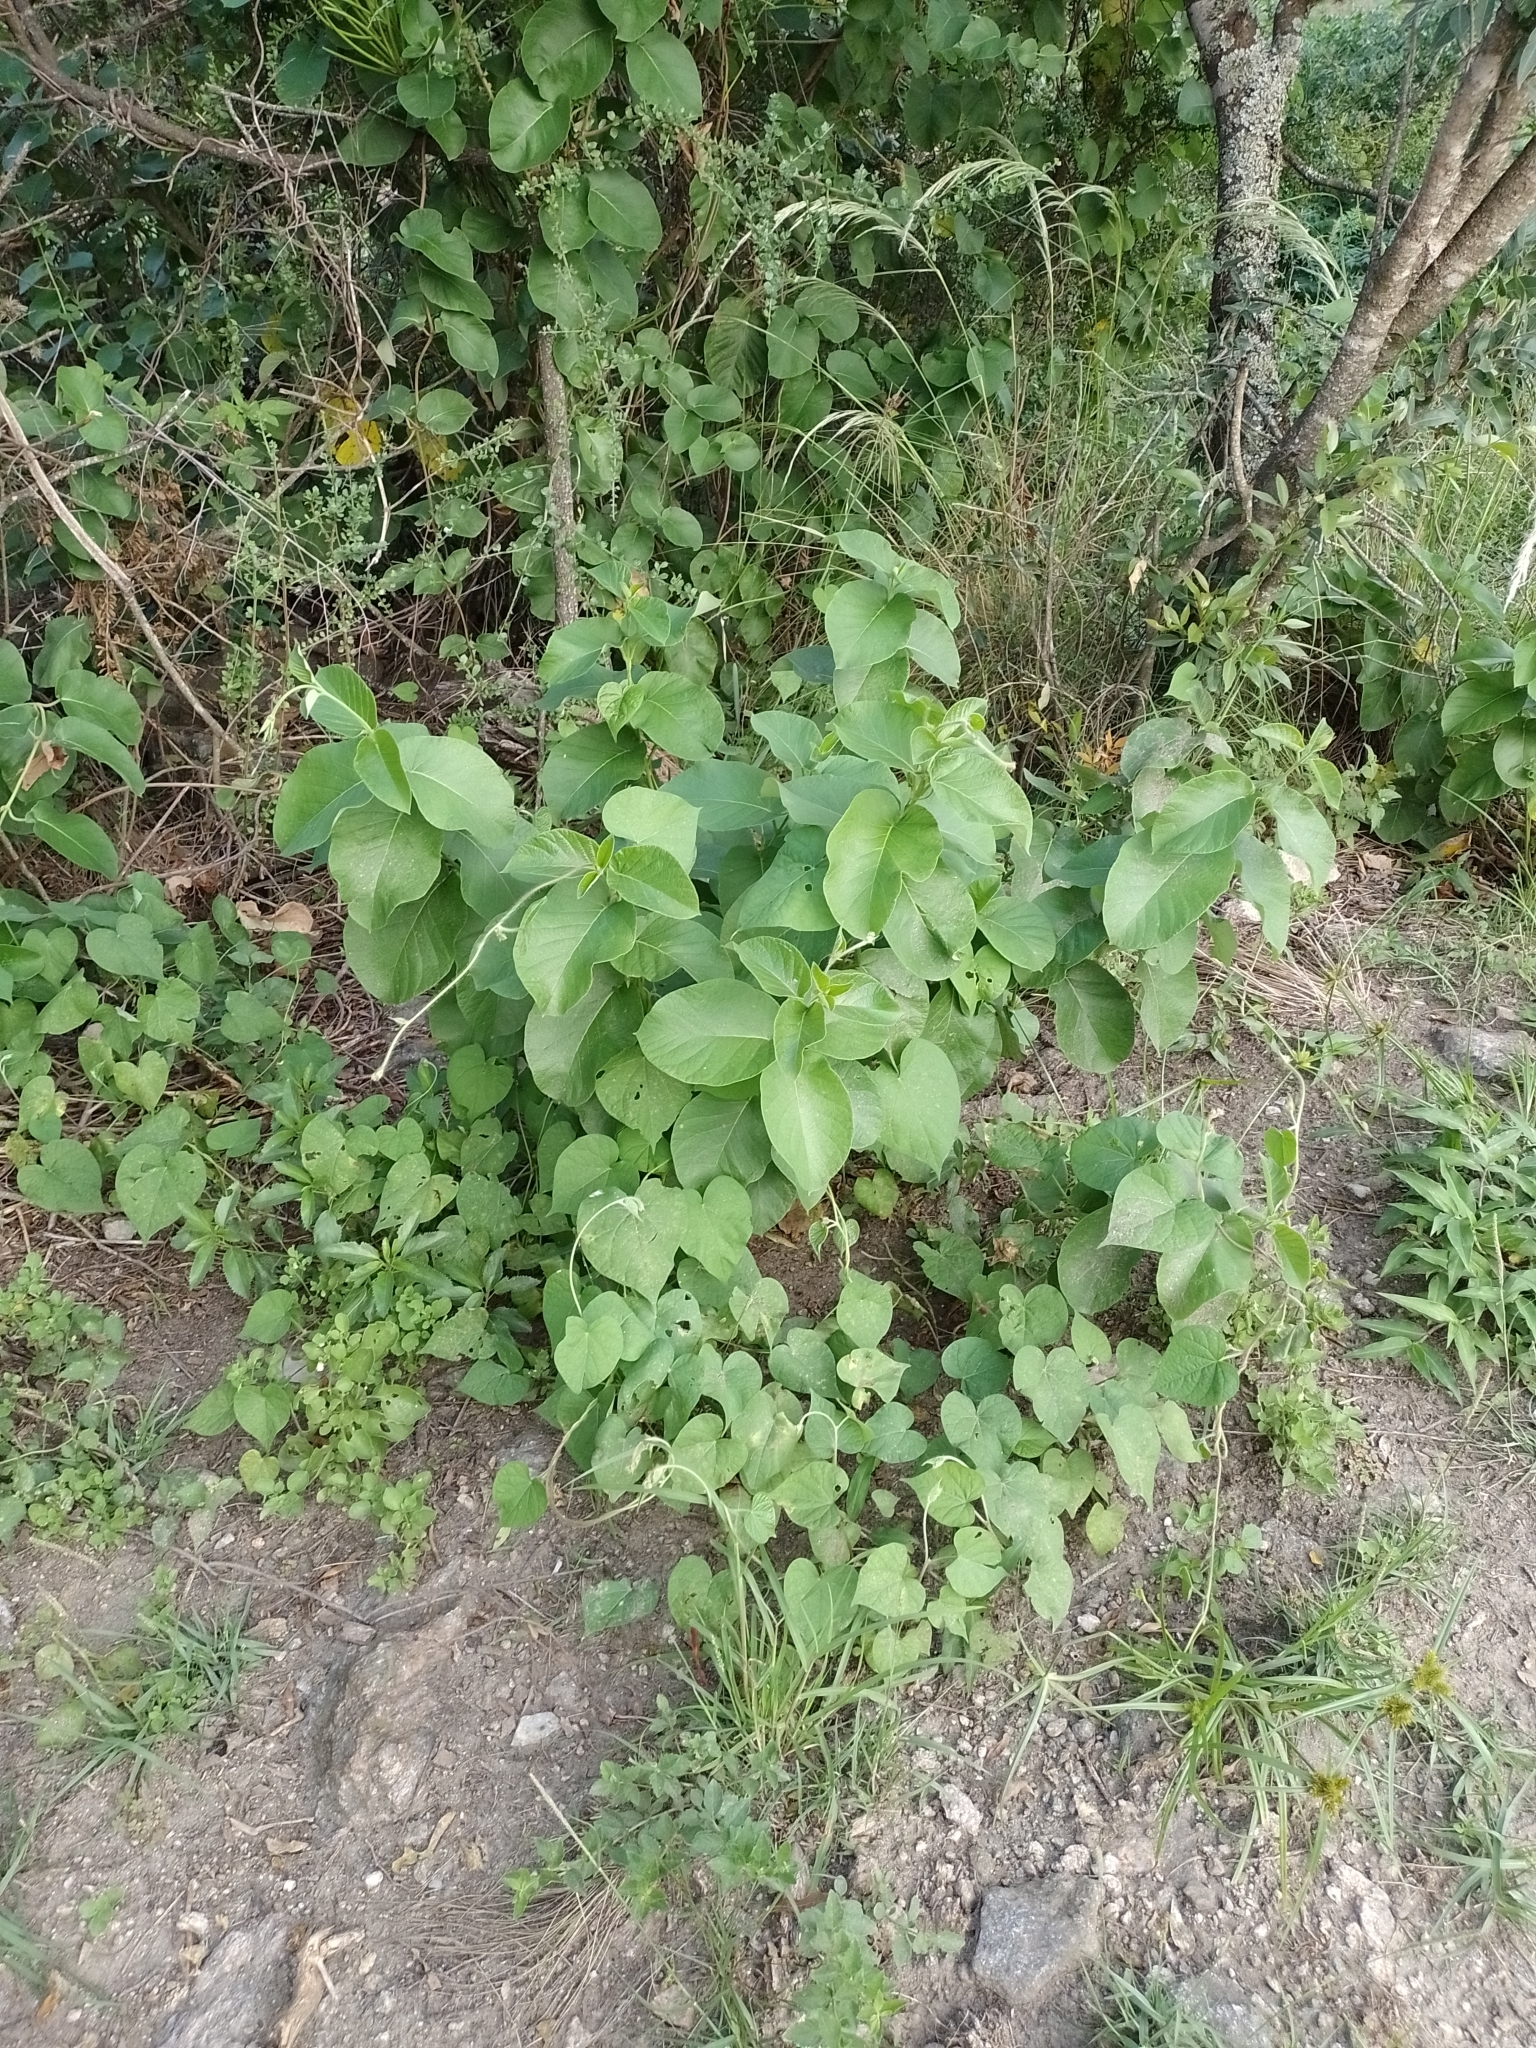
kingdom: Plantae
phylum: Tracheophyta
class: Magnoliopsida
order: Gentianales
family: Apocynaceae
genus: Mandevilla
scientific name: Mandevilla pentlandiana
